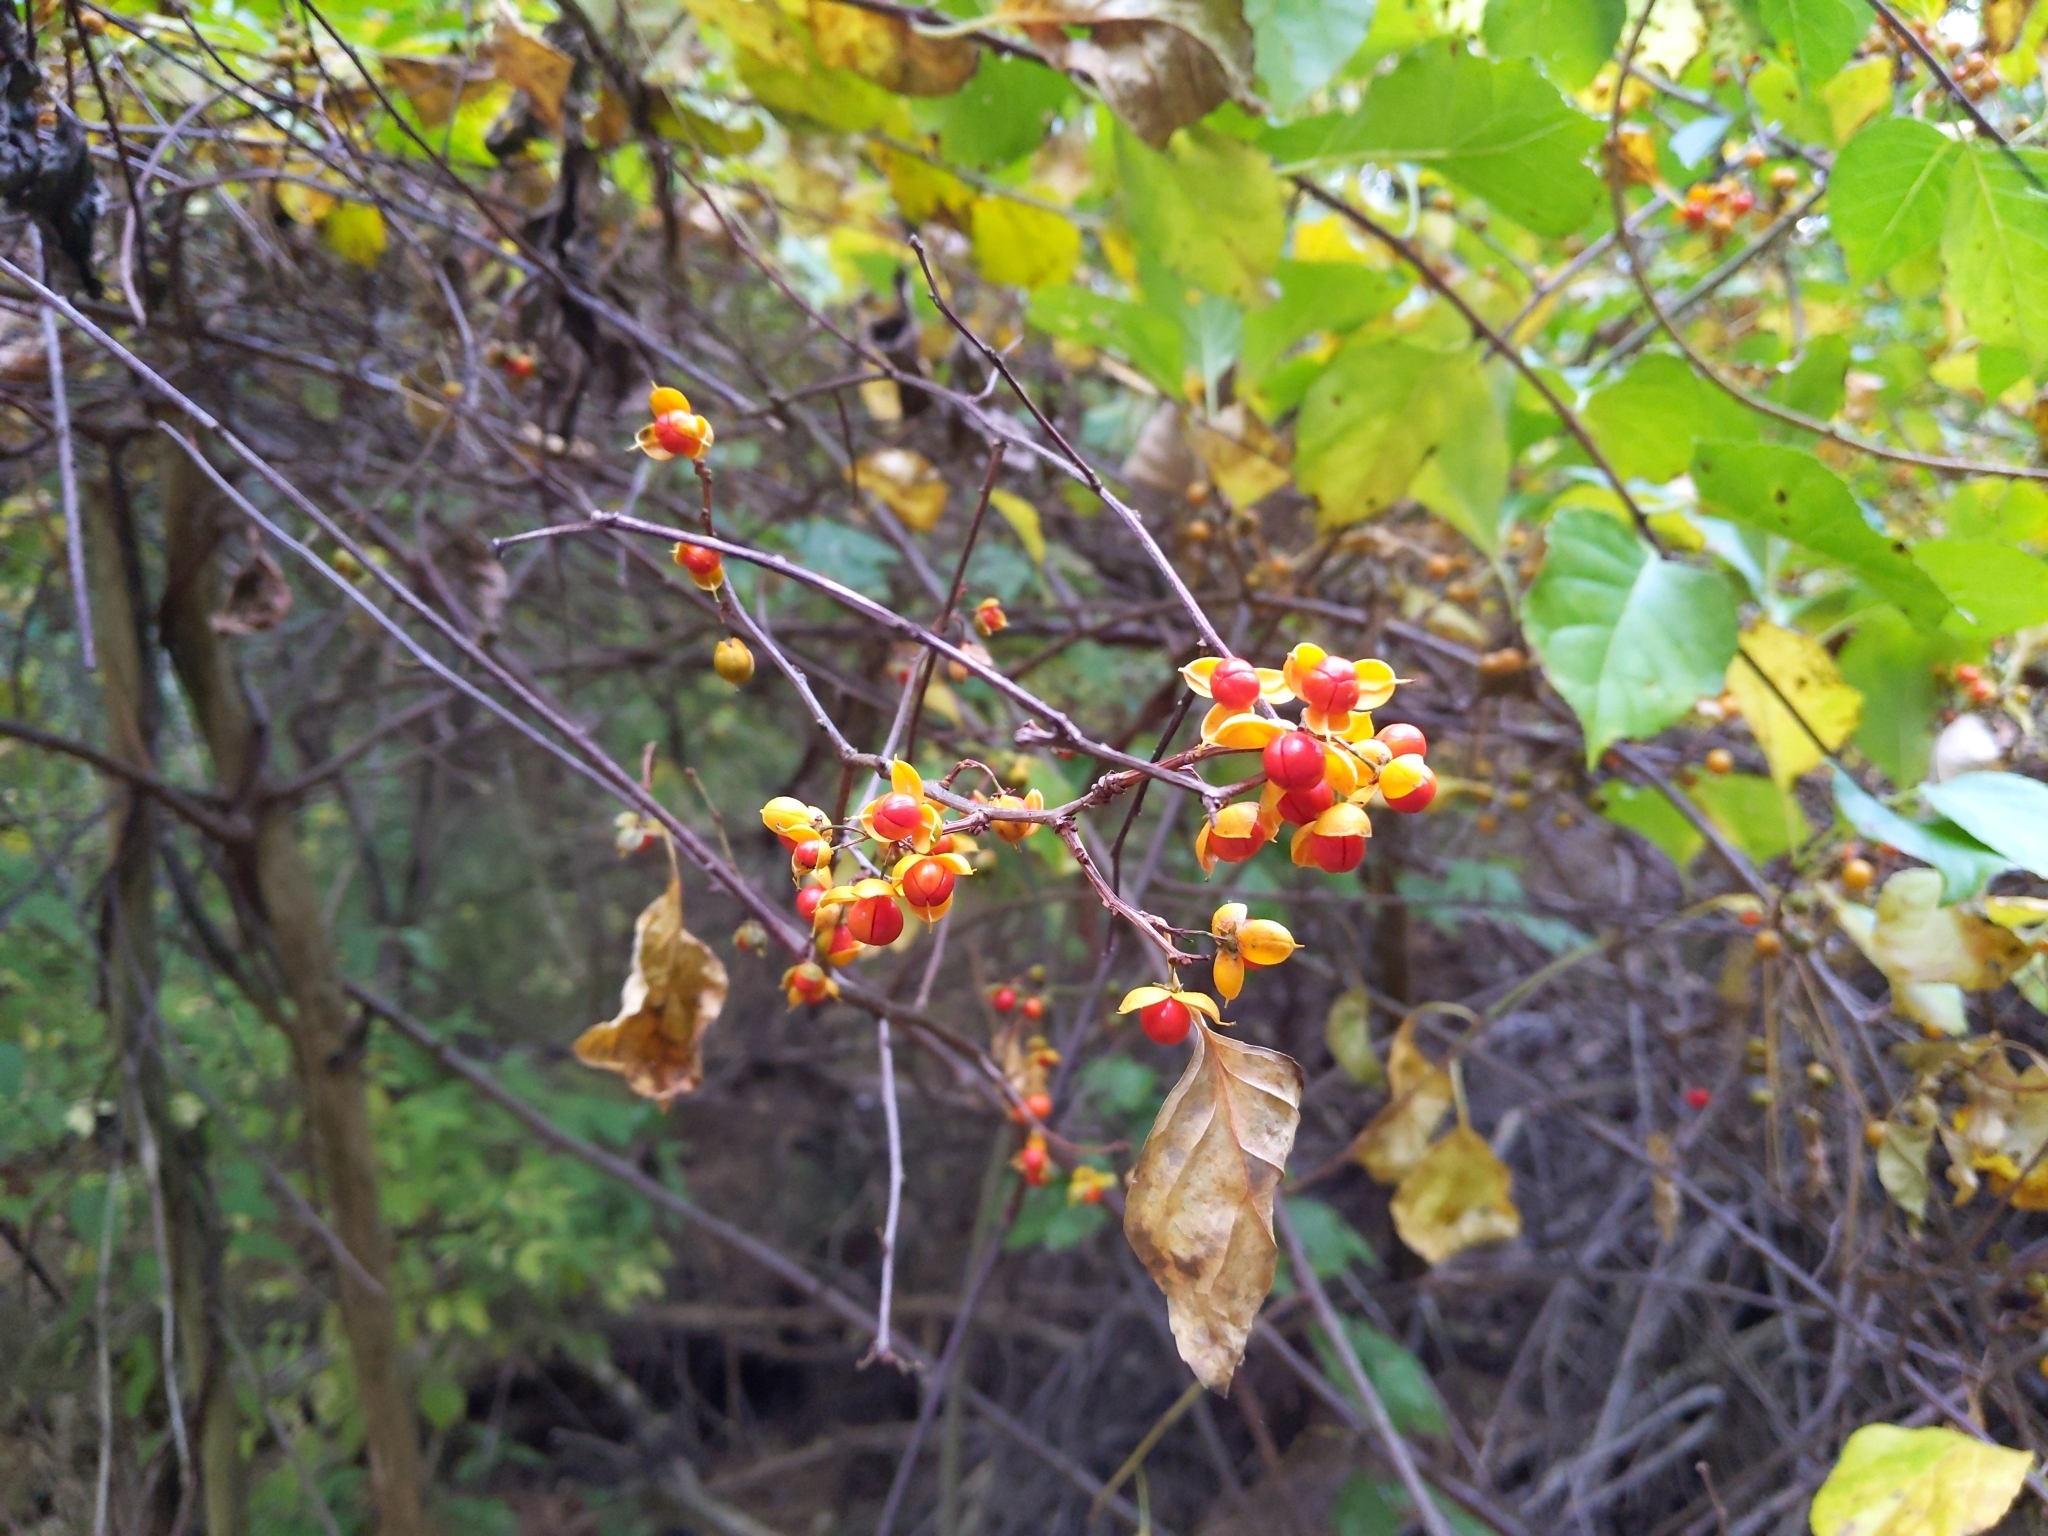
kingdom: Plantae
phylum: Tracheophyta
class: Magnoliopsida
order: Celastrales
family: Celastraceae
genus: Celastrus
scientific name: Celastrus orbiculatus
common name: Oriental bittersweet
